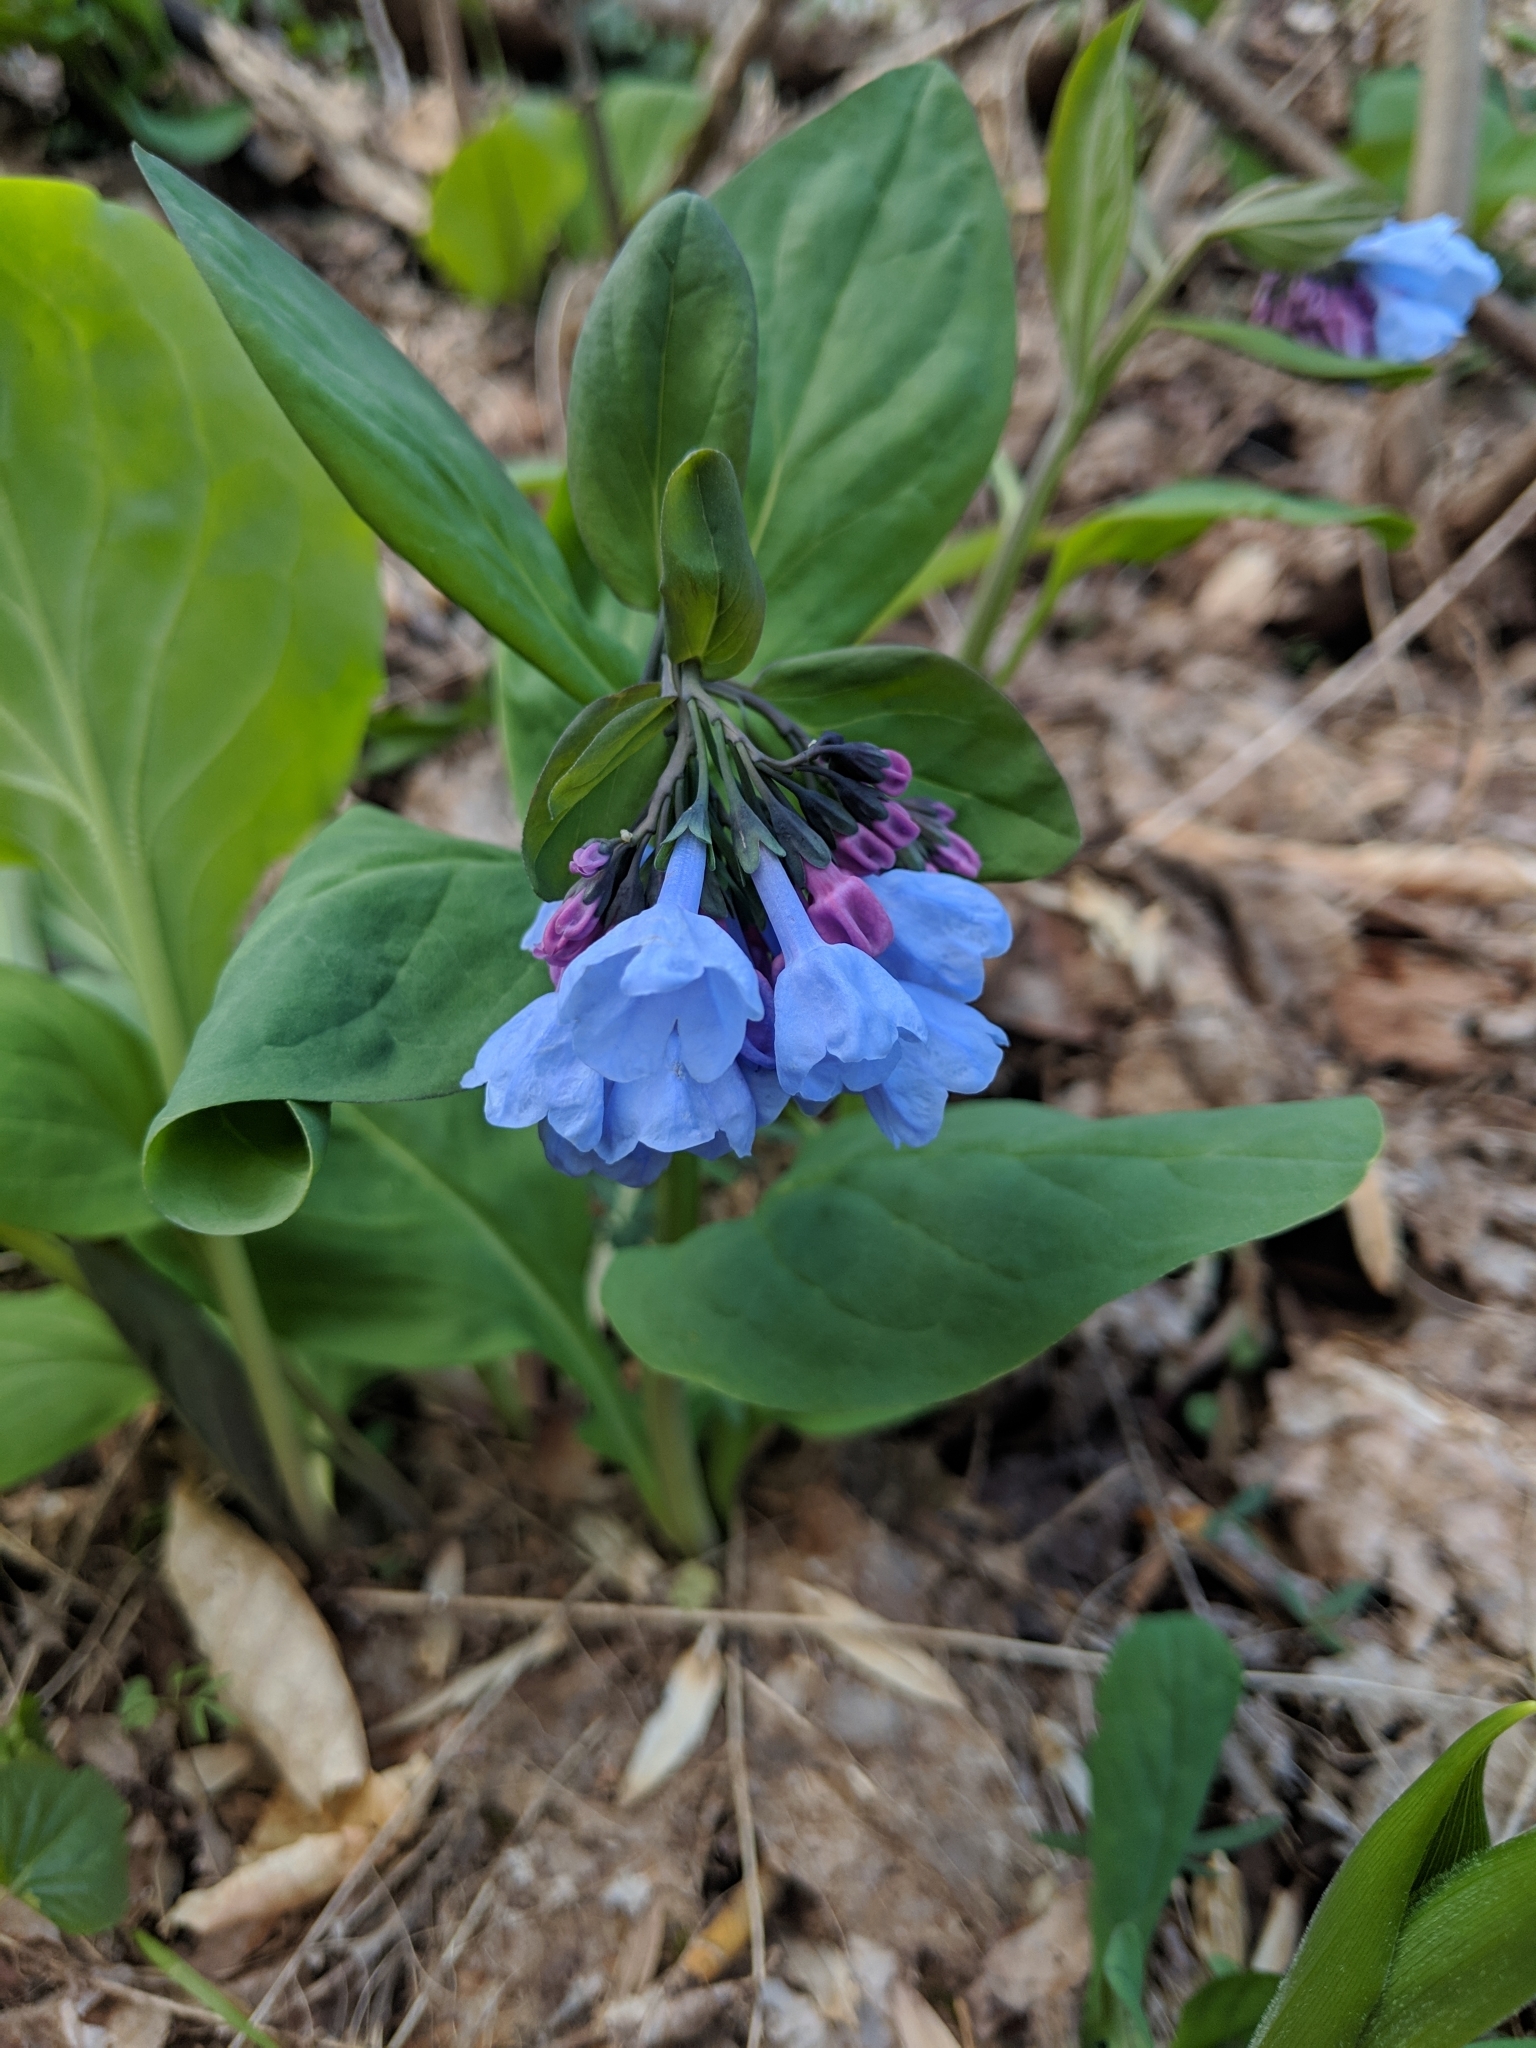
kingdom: Plantae
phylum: Tracheophyta
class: Magnoliopsida
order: Boraginales
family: Boraginaceae
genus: Mertensia
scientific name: Mertensia virginica
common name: Virginia bluebells
